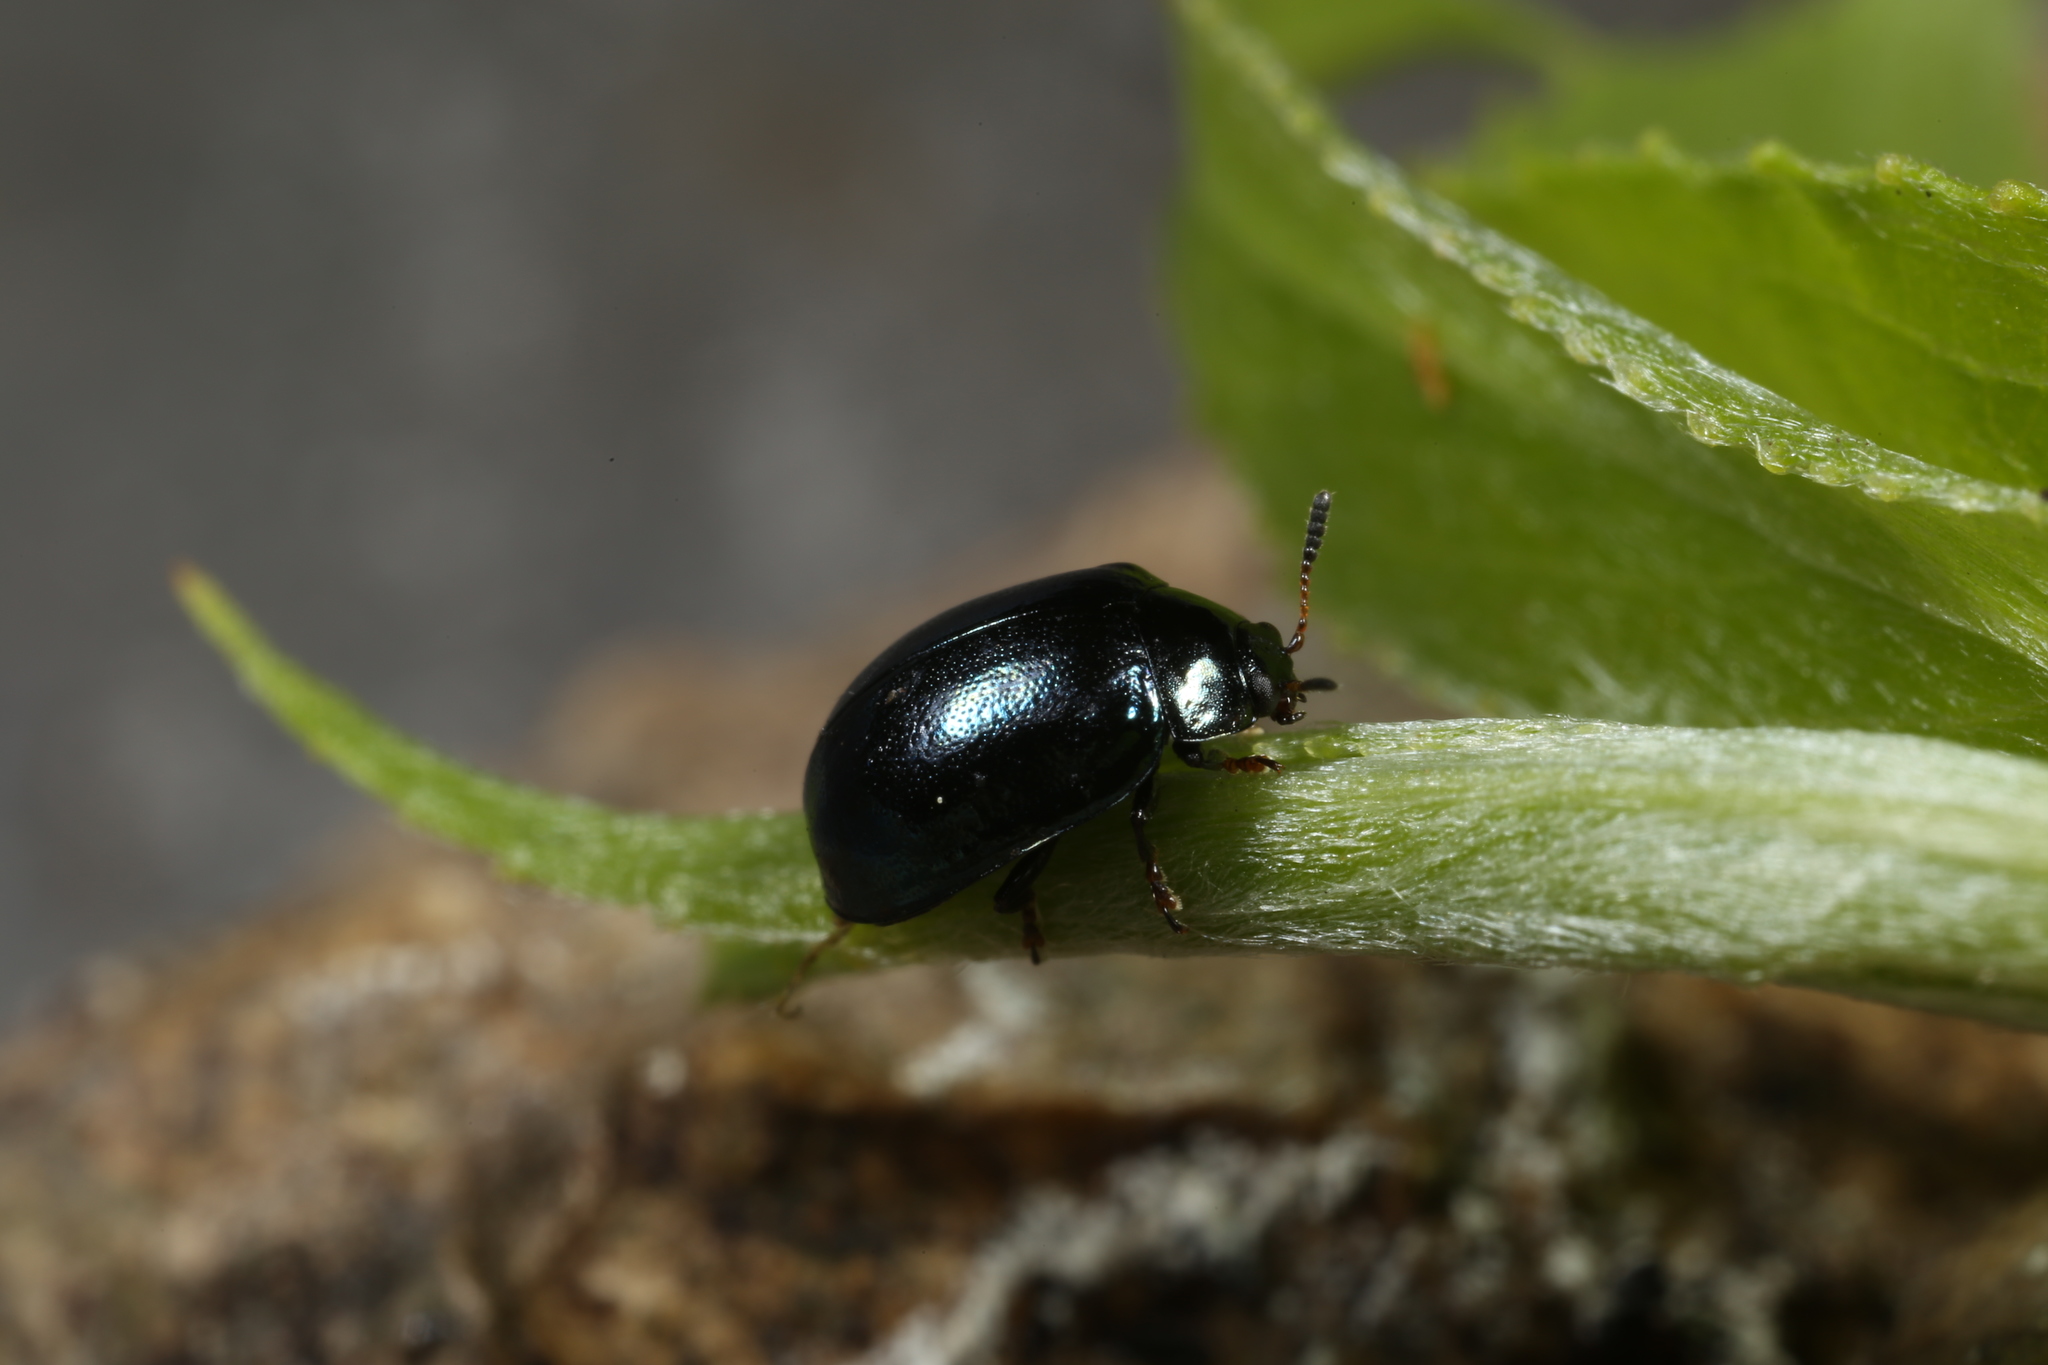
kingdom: Animalia
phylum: Arthropoda
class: Insecta
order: Coleoptera
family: Chrysomelidae
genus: Plagiodera
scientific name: Plagiodera versicolora
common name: Imported willow leaf beetle
